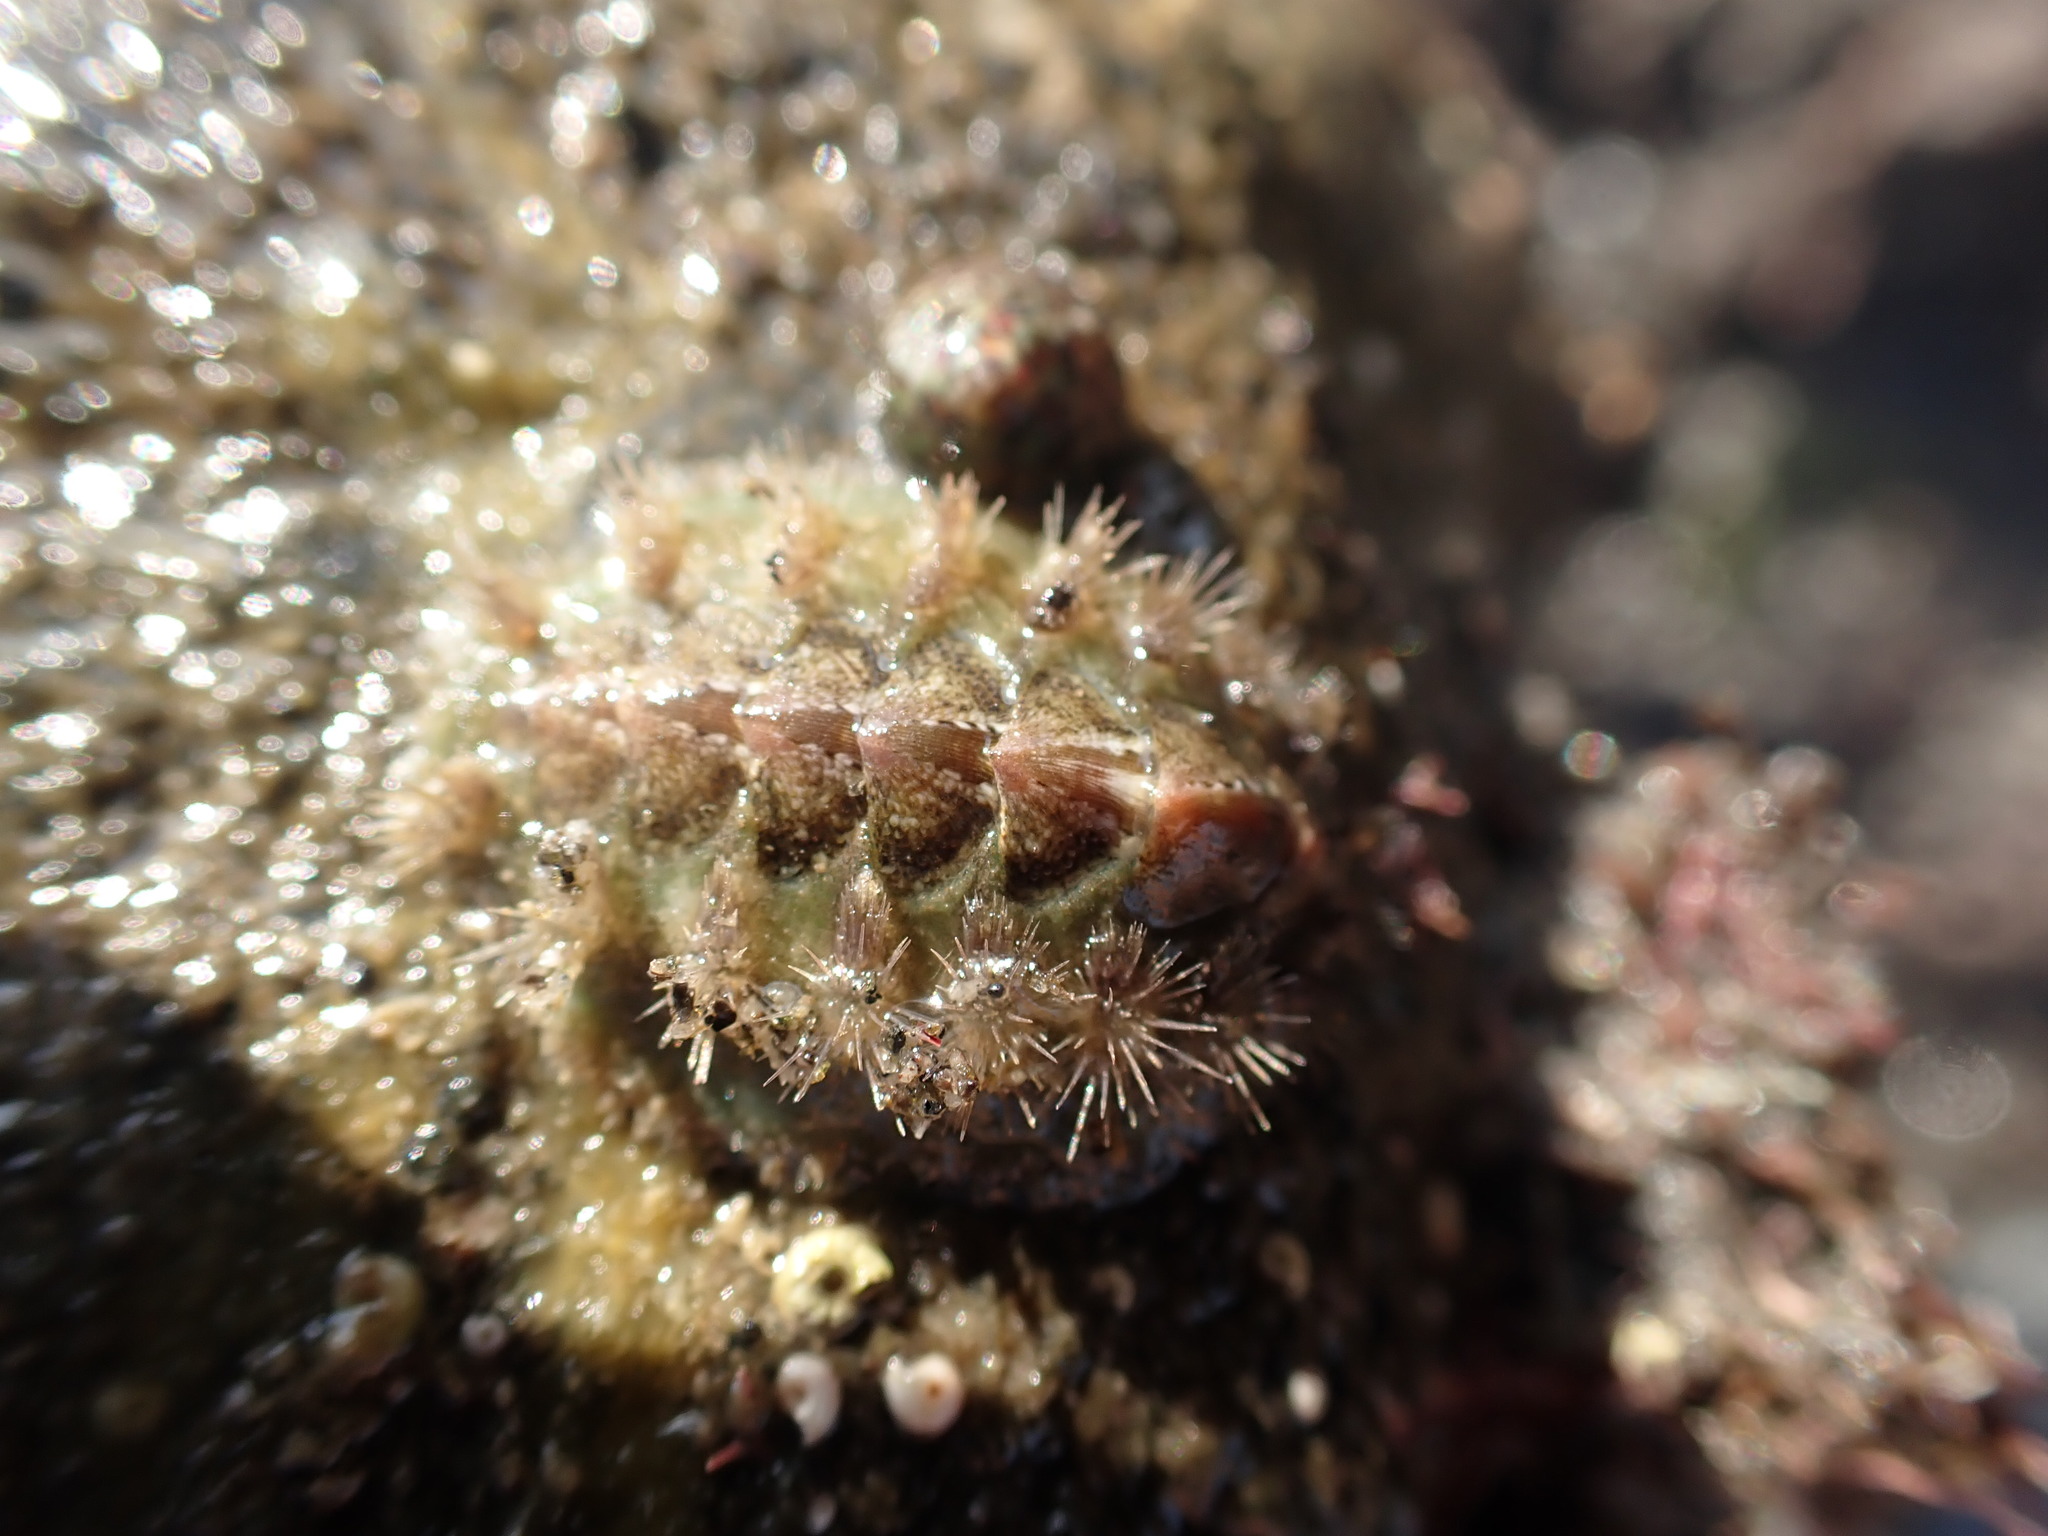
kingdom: Animalia
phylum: Mollusca
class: Polyplacophora
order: Chitonida
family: Acanthochitonidae
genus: Acanthochitona
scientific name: Acanthochitona zelandica
